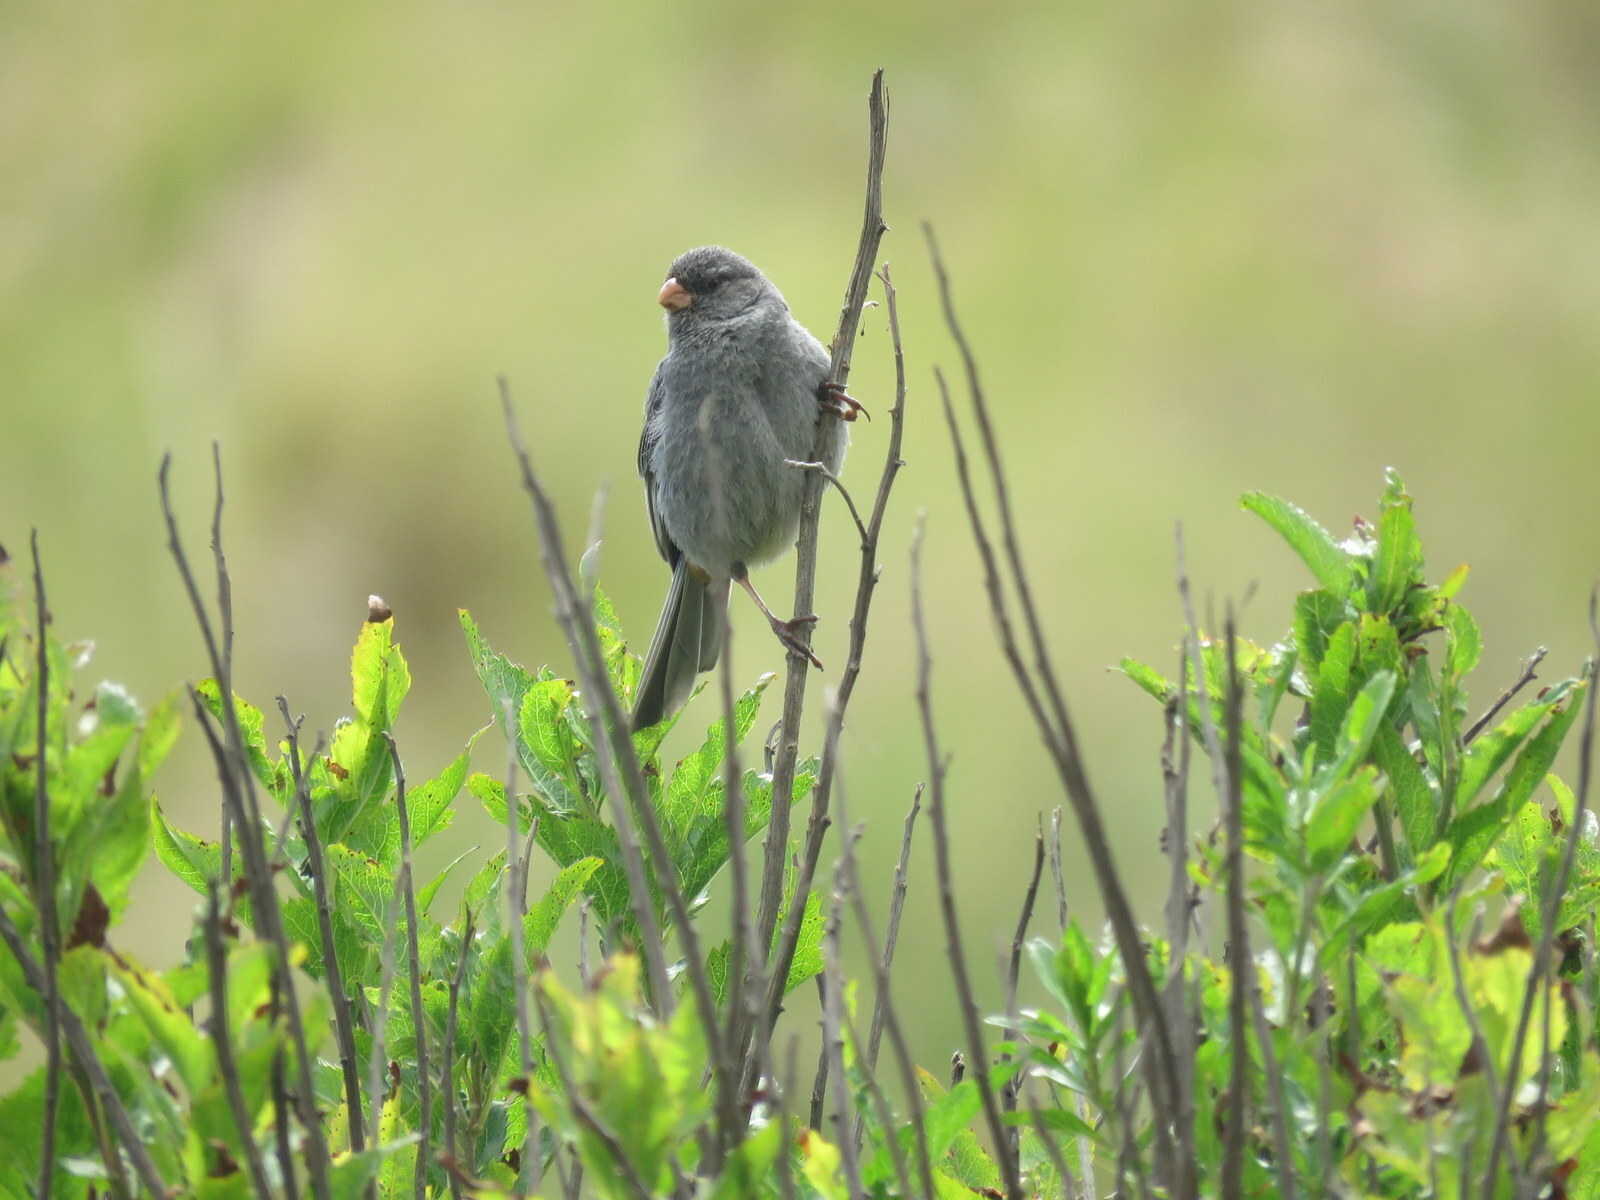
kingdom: Animalia
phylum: Chordata
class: Aves
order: Passeriformes
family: Thraupidae
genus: Catamenia
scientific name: Catamenia inornata
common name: Plain-colored seedeater
